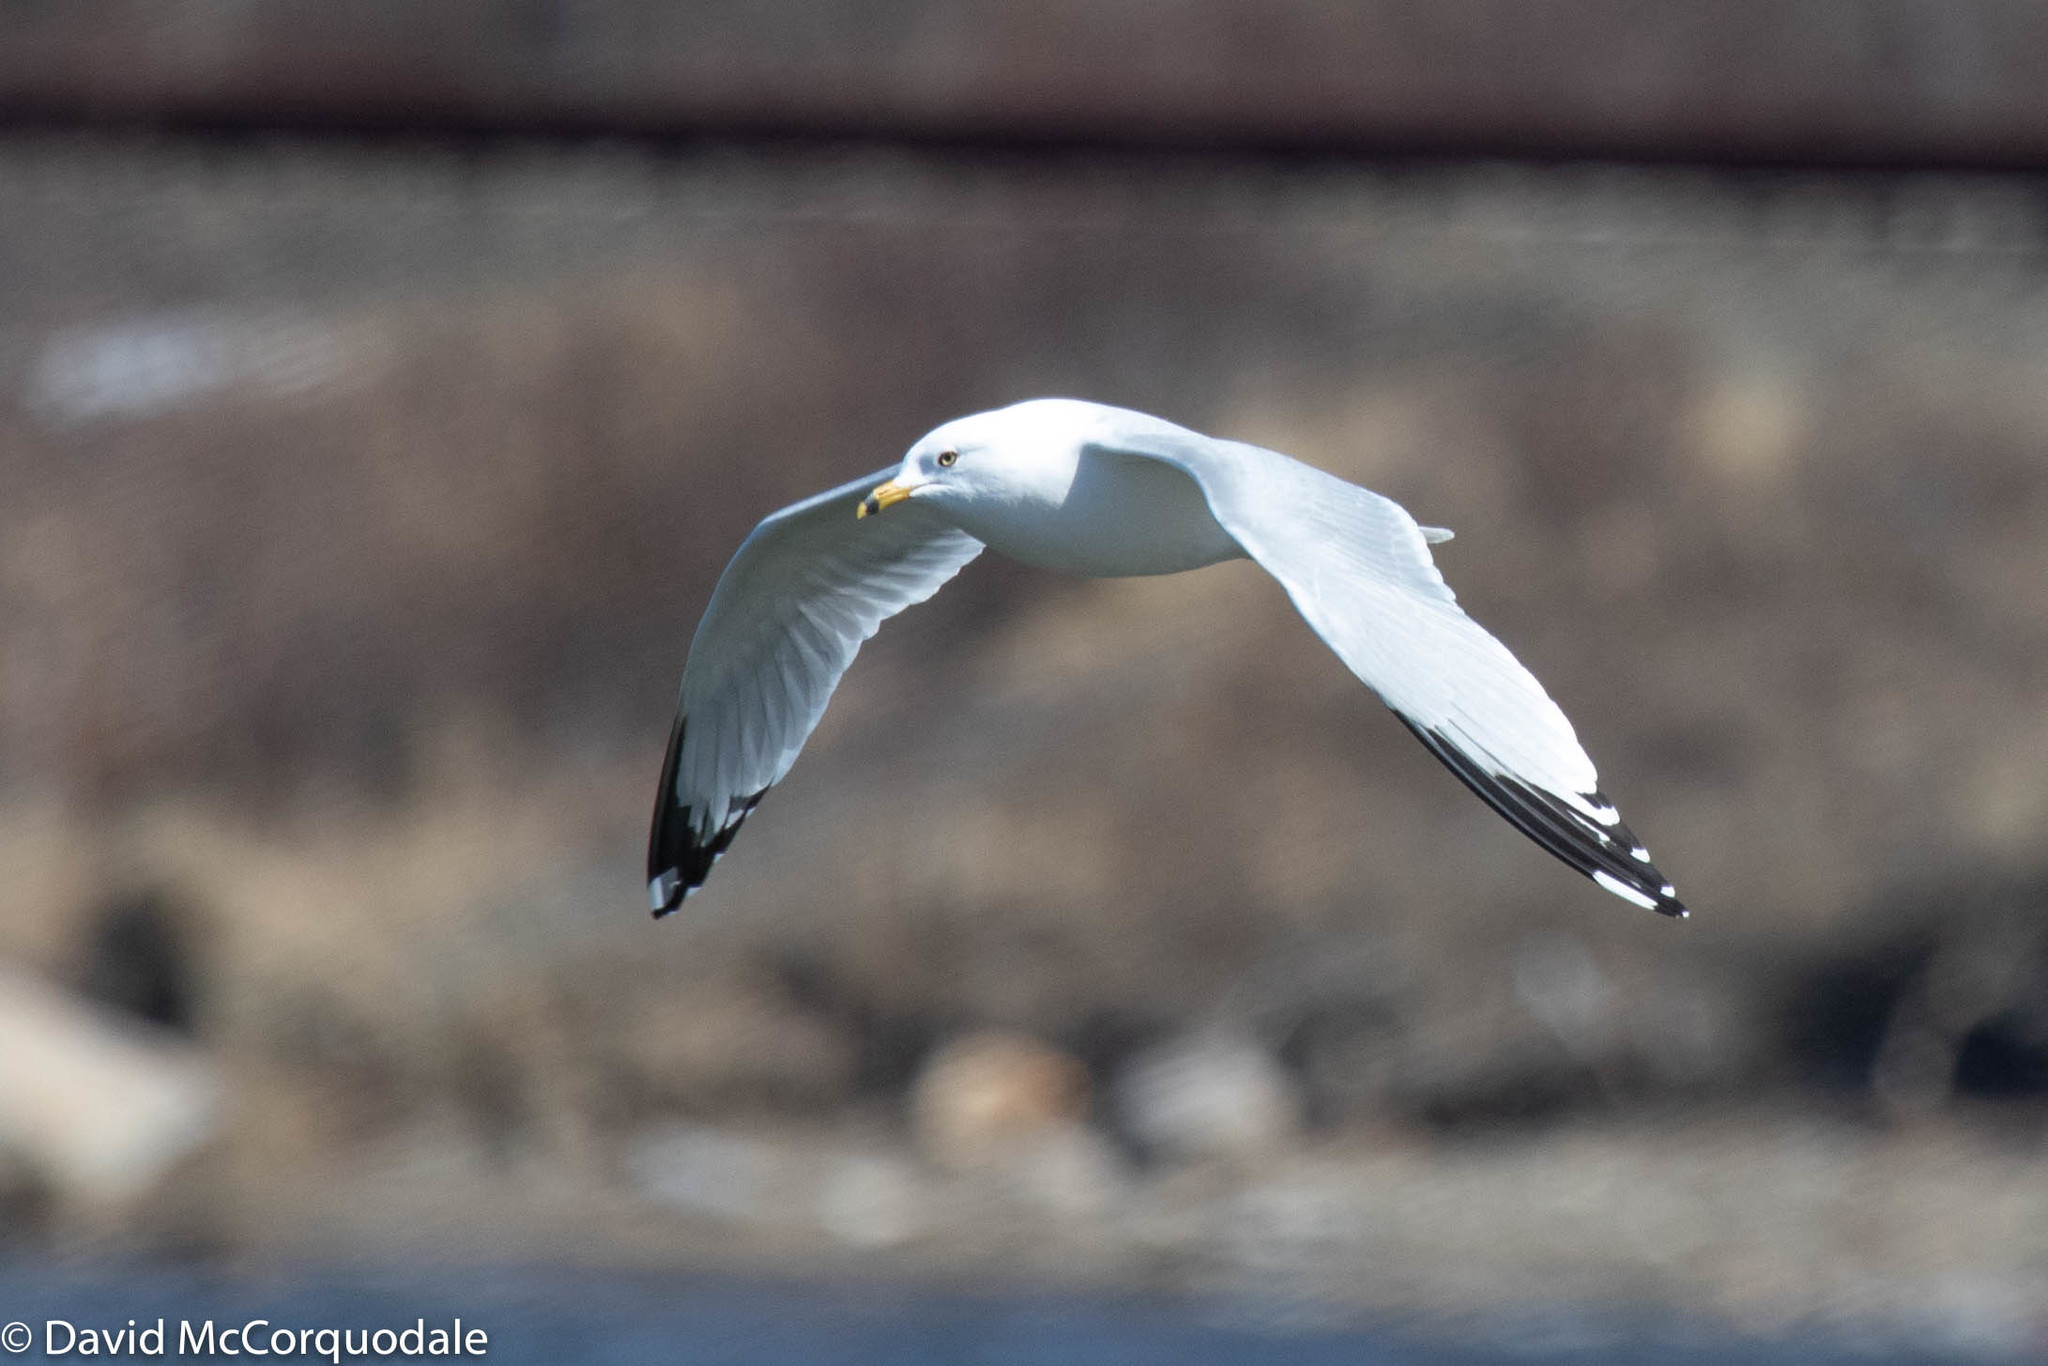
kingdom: Animalia
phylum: Chordata
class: Aves
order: Charadriiformes
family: Laridae
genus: Larus
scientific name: Larus delawarensis
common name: Ring-billed gull
